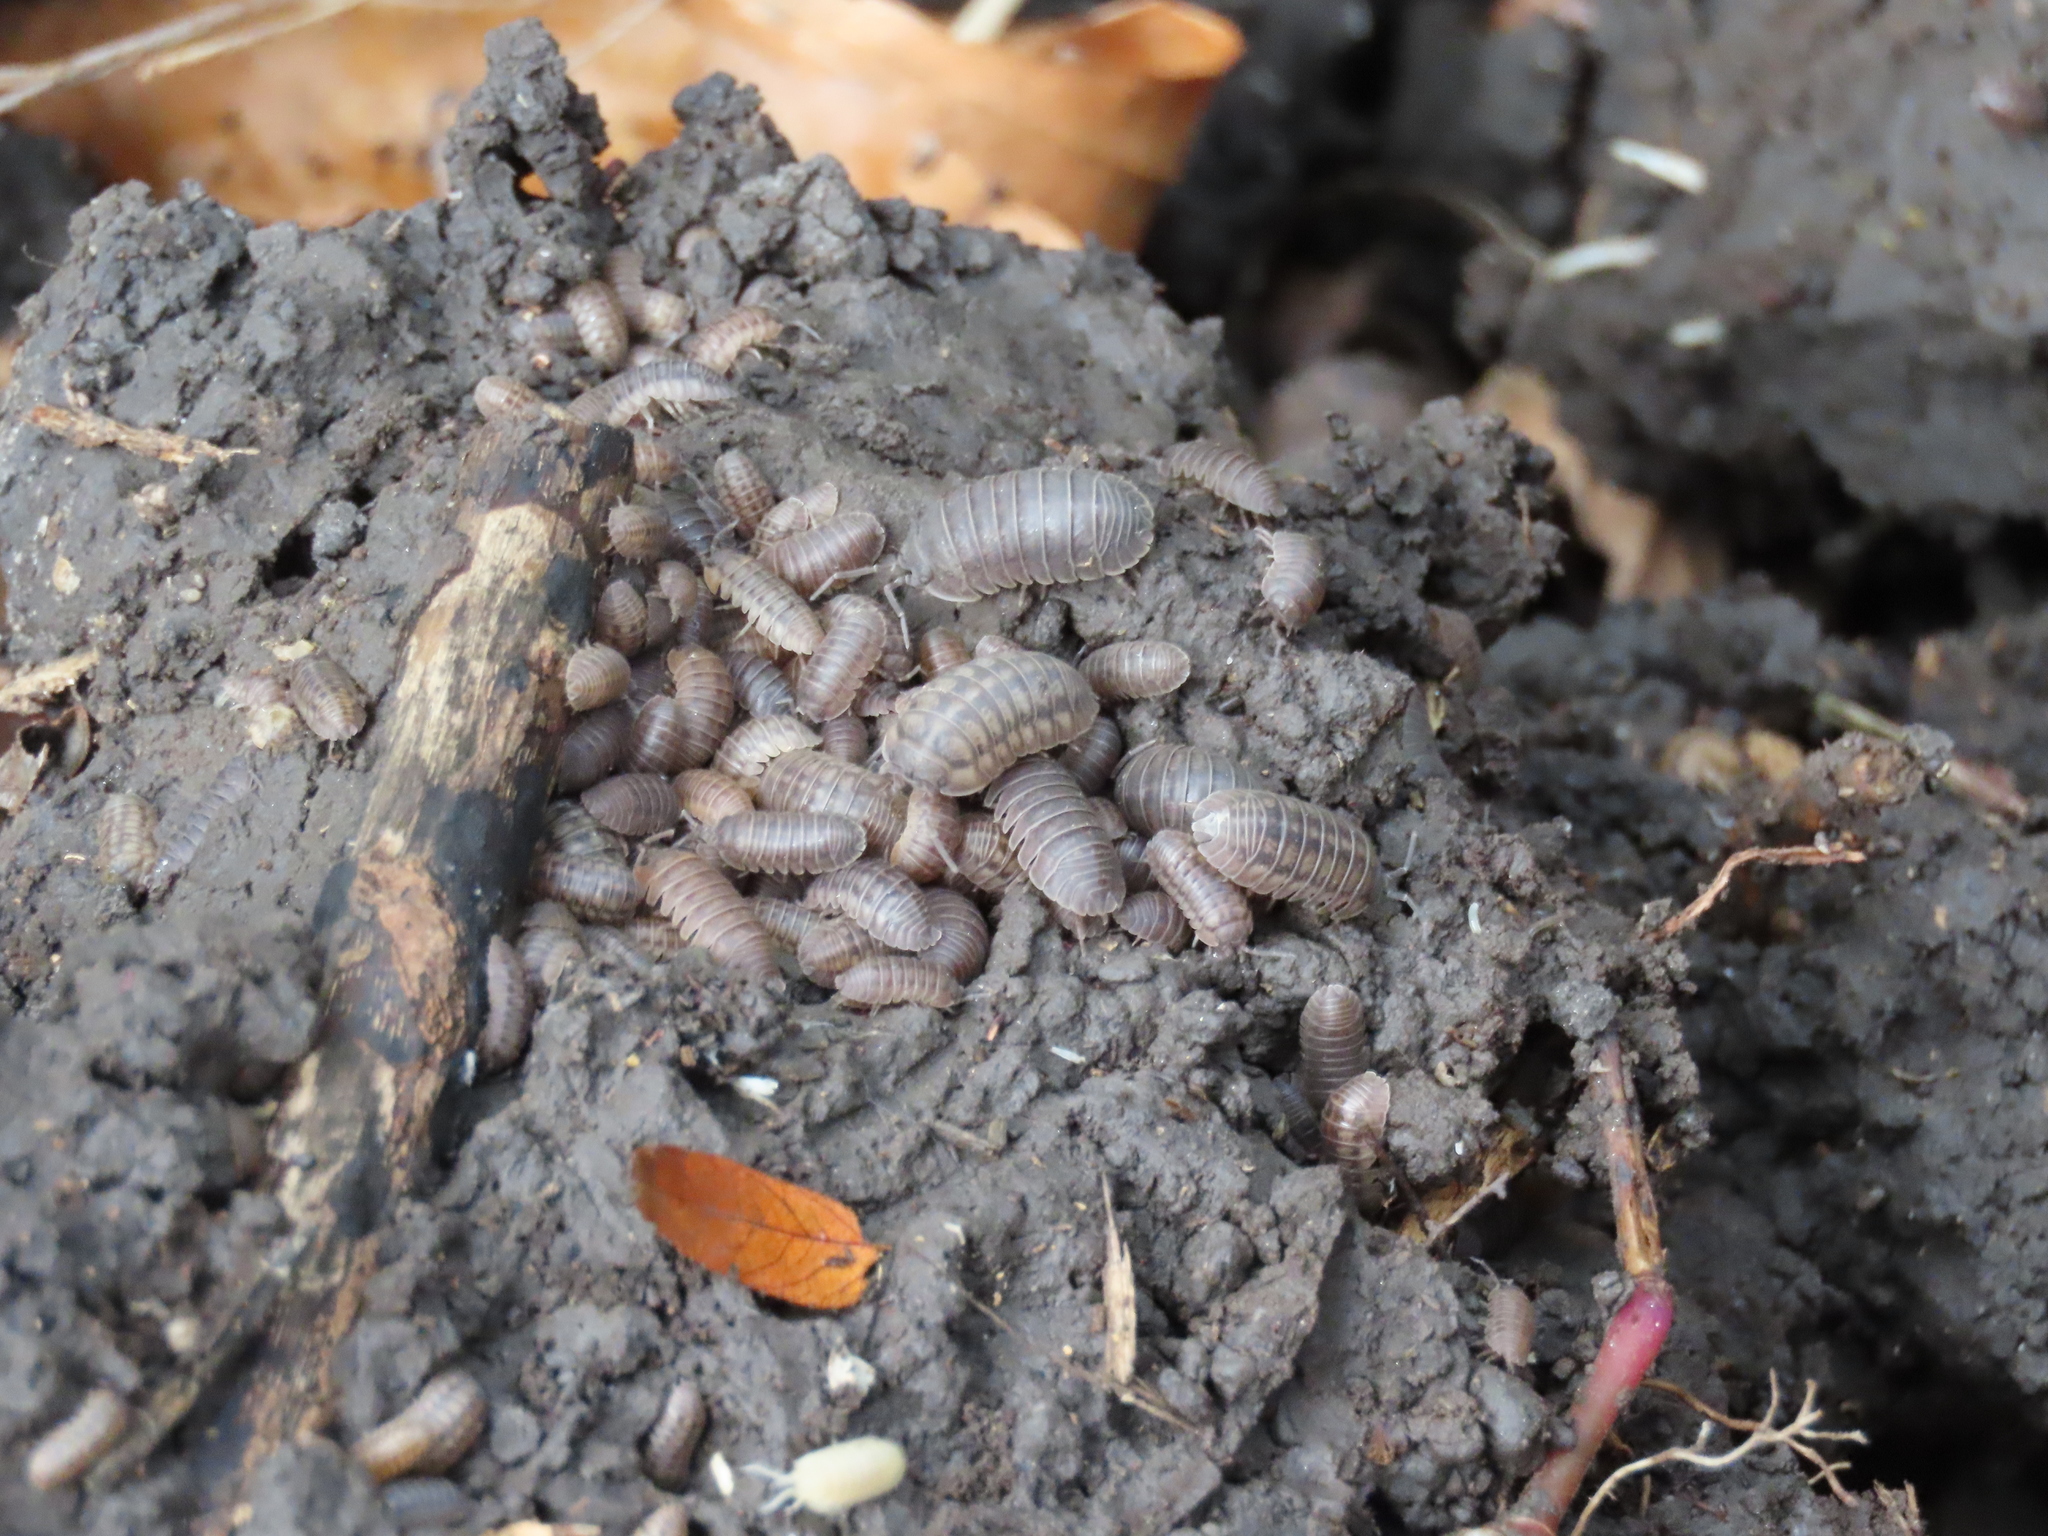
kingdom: Animalia
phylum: Arthropoda
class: Malacostraca
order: Isopoda
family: Armadillidiidae
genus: Armadillidium
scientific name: Armadillidium nasatum
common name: Isopod
